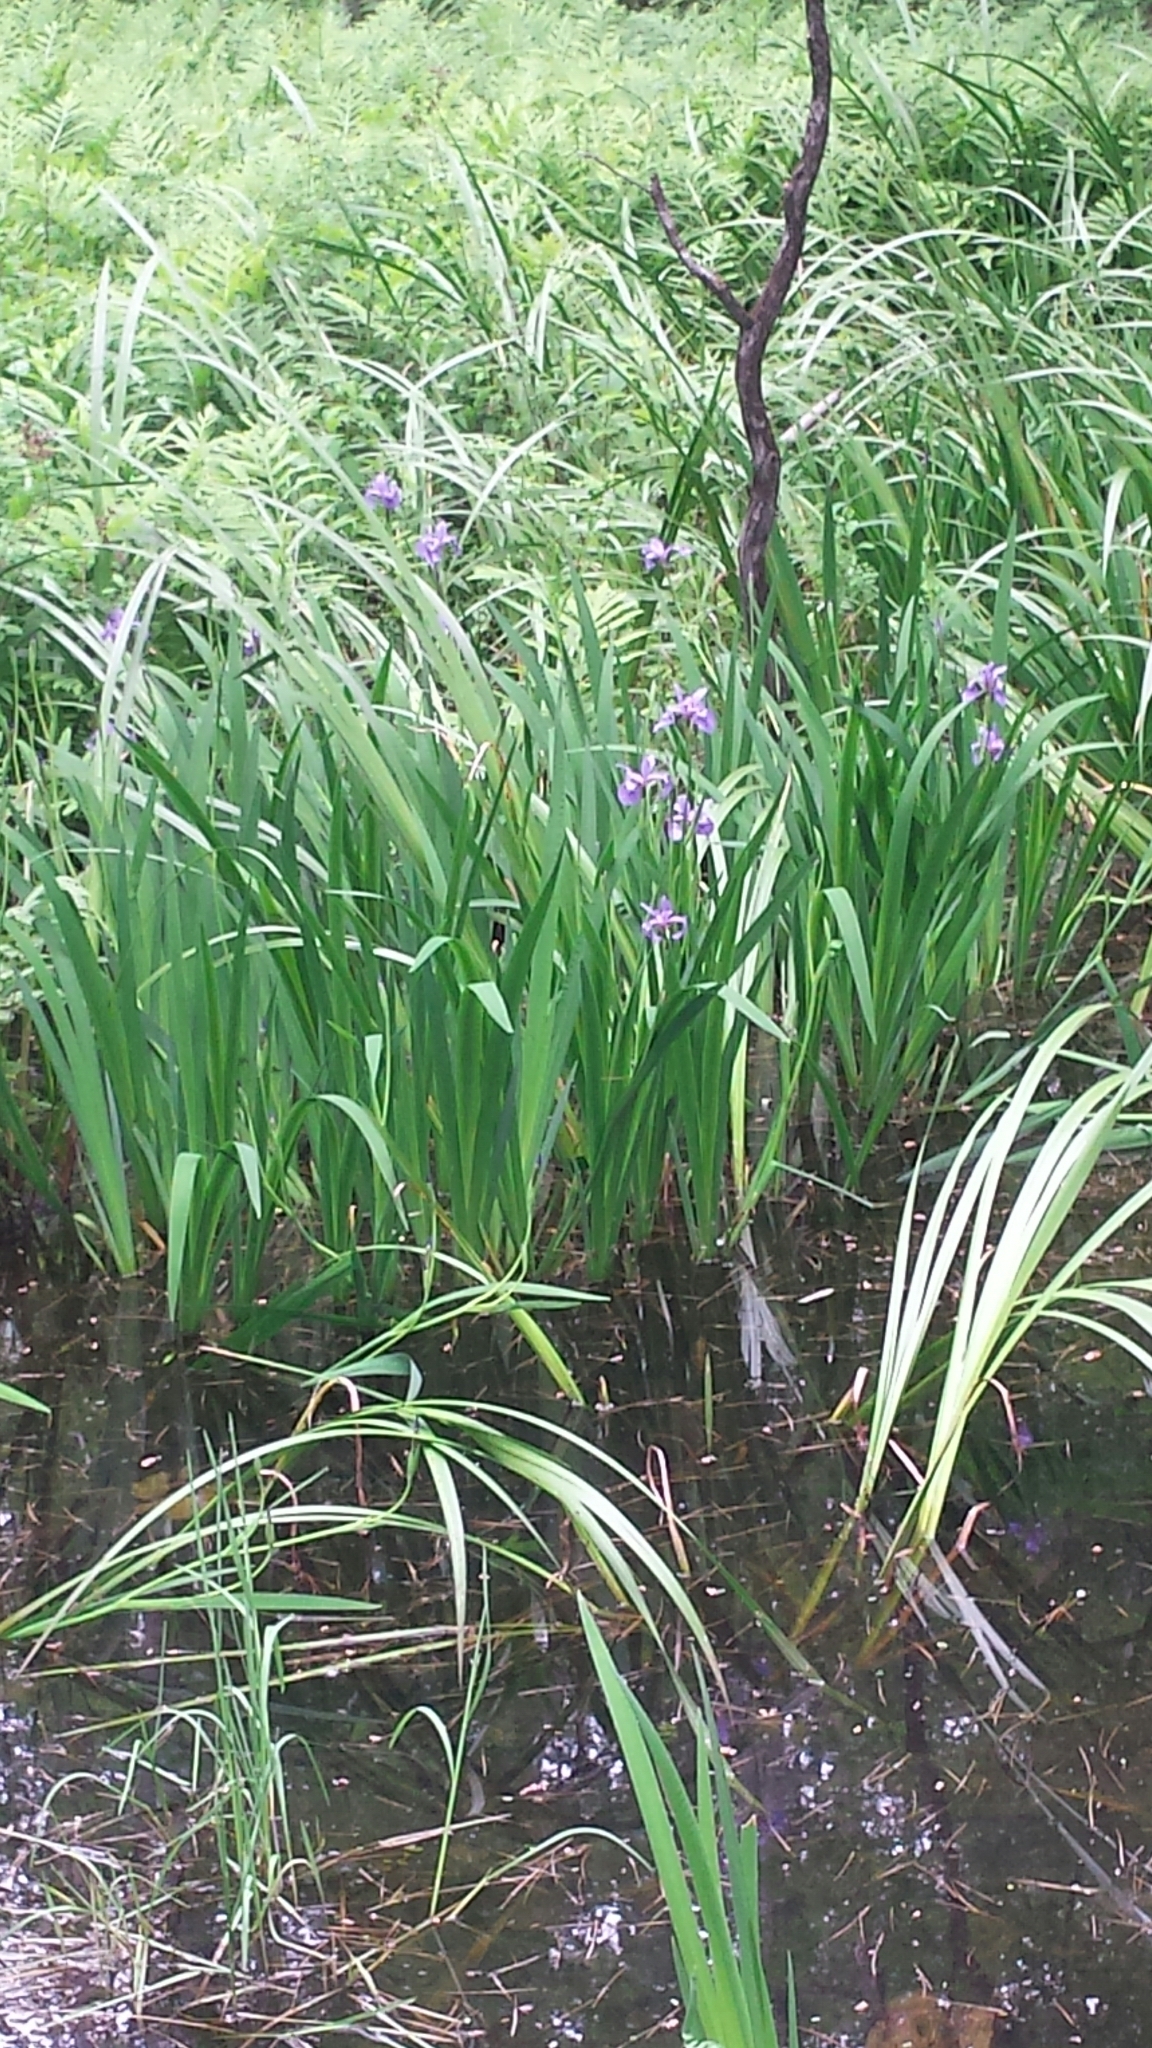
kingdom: Plantae
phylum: Tracheophyta
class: Liliopsida
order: Asparagales
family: Iridaceae
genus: Iris
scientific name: Iris versicolor
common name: Purple iris
